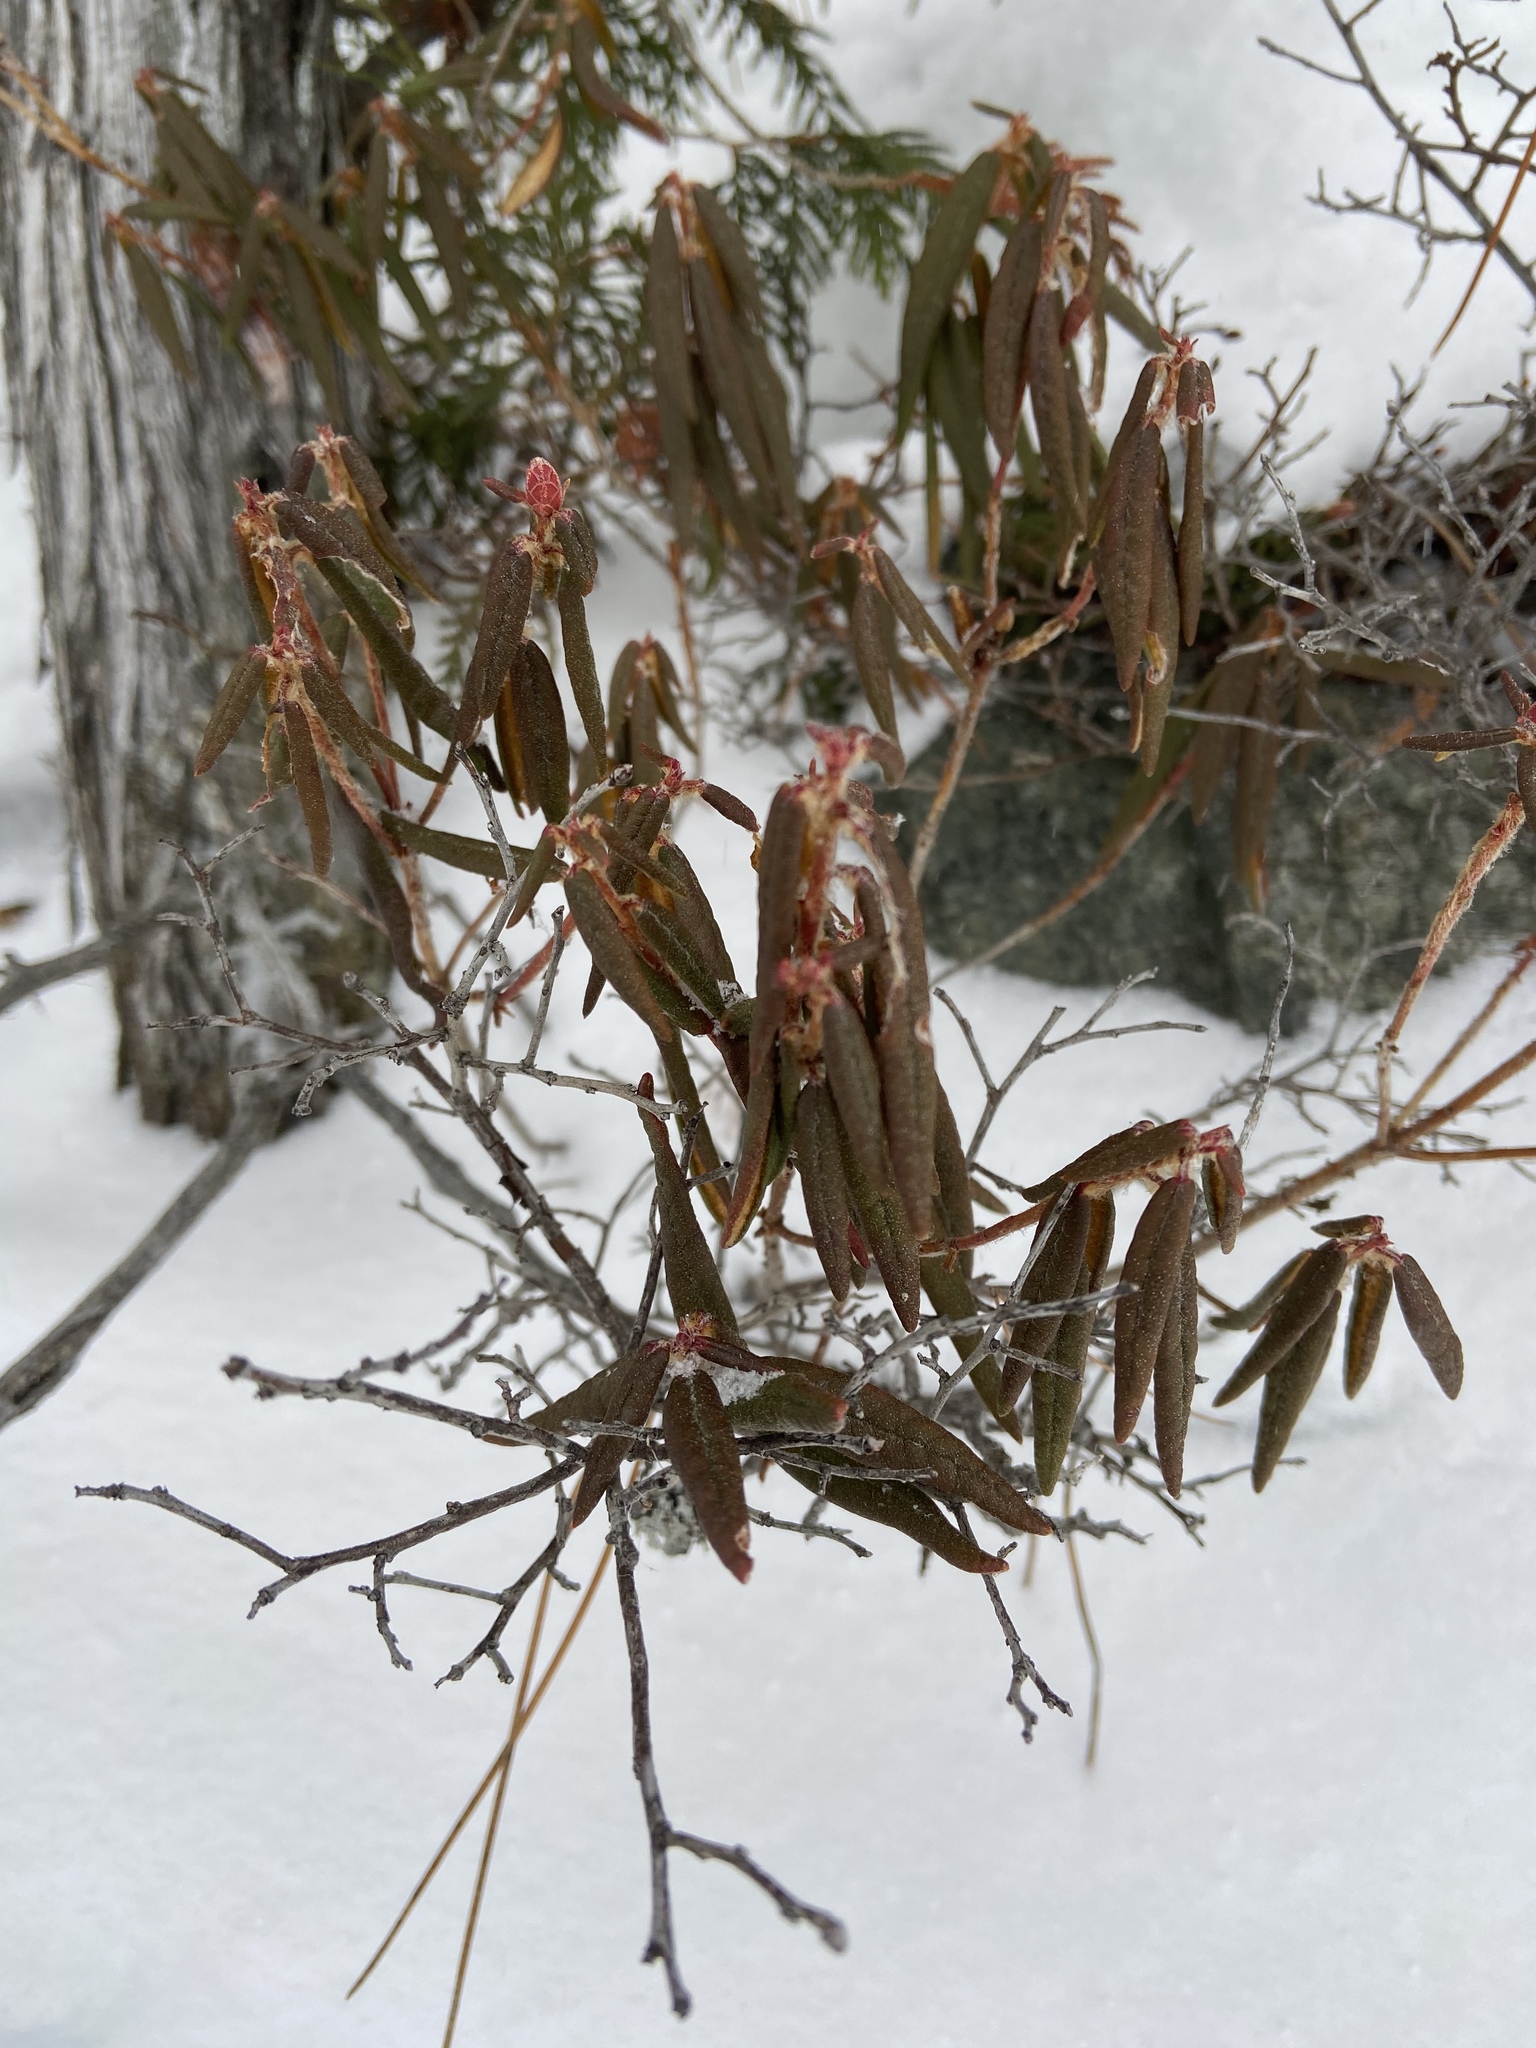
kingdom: Plantae
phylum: Tracheophyta
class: Magnoliopsida
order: Ericales
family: Ericaceae
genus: Rhododendron
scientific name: Rhododendron groenlandicum
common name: Bog labrador tea
